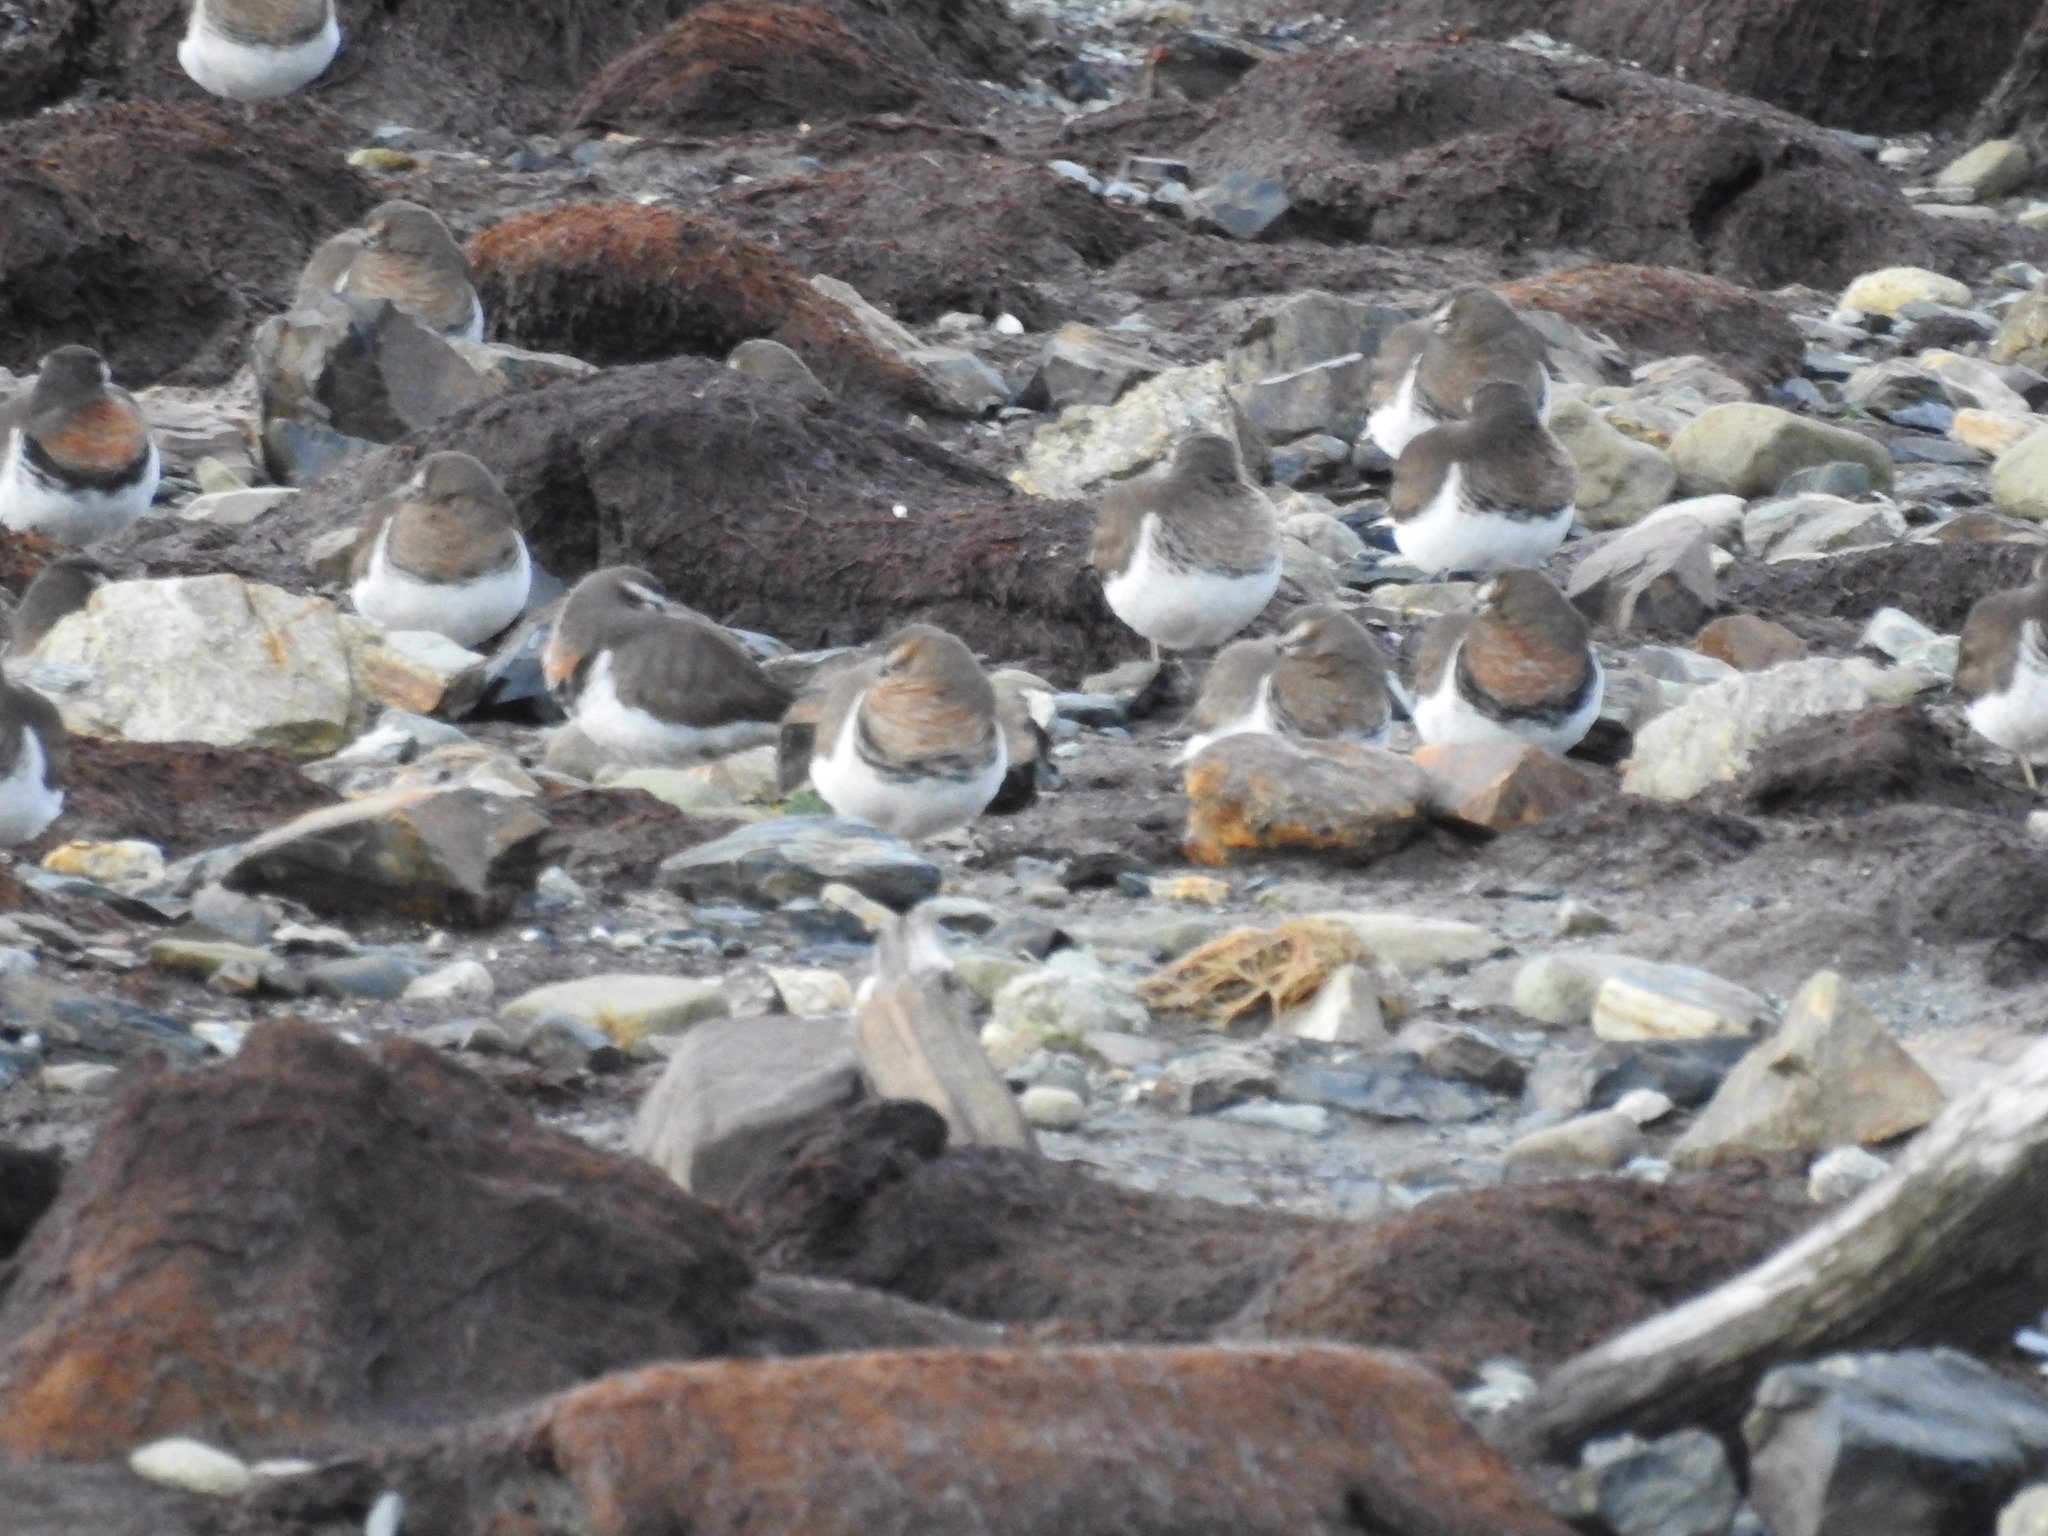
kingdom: Animalia
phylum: Chordata
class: Aves
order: Charadriiformes
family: Charadriidae
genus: Charadrius
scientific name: Charadrius modestus
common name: Rufous-chested plover
